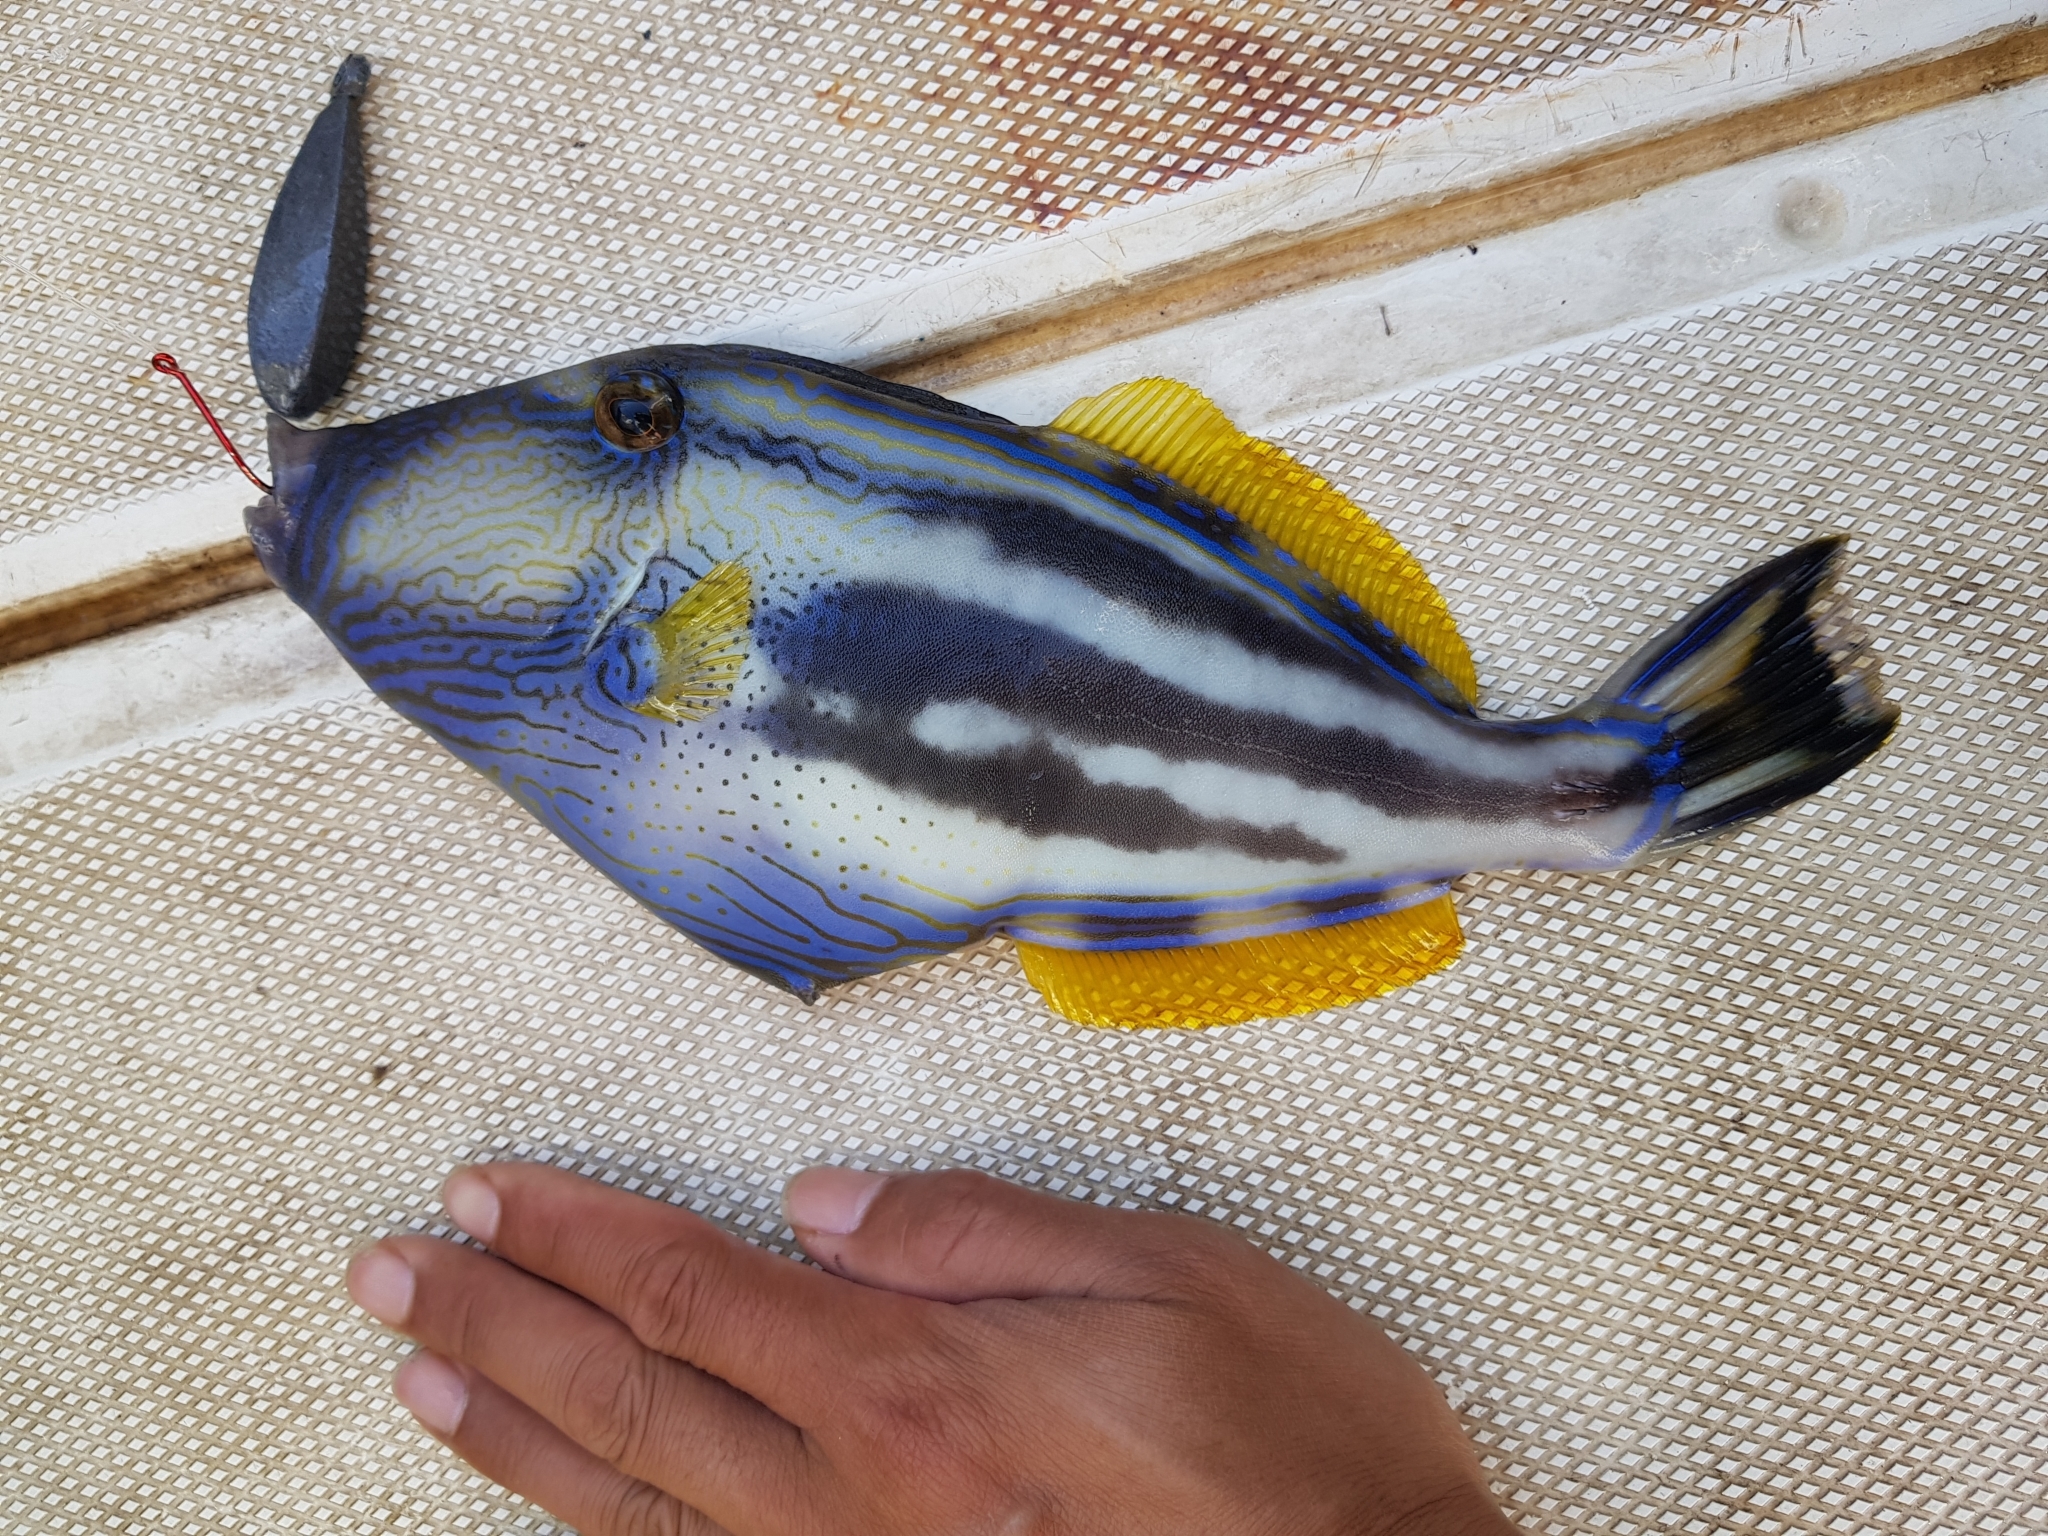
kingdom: Animalia
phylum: Chordata
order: Tetraodontiformes
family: Monacanthidae
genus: Meuschenia
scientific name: Meuschenia freycineti
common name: Freycinet's leatherjacket
